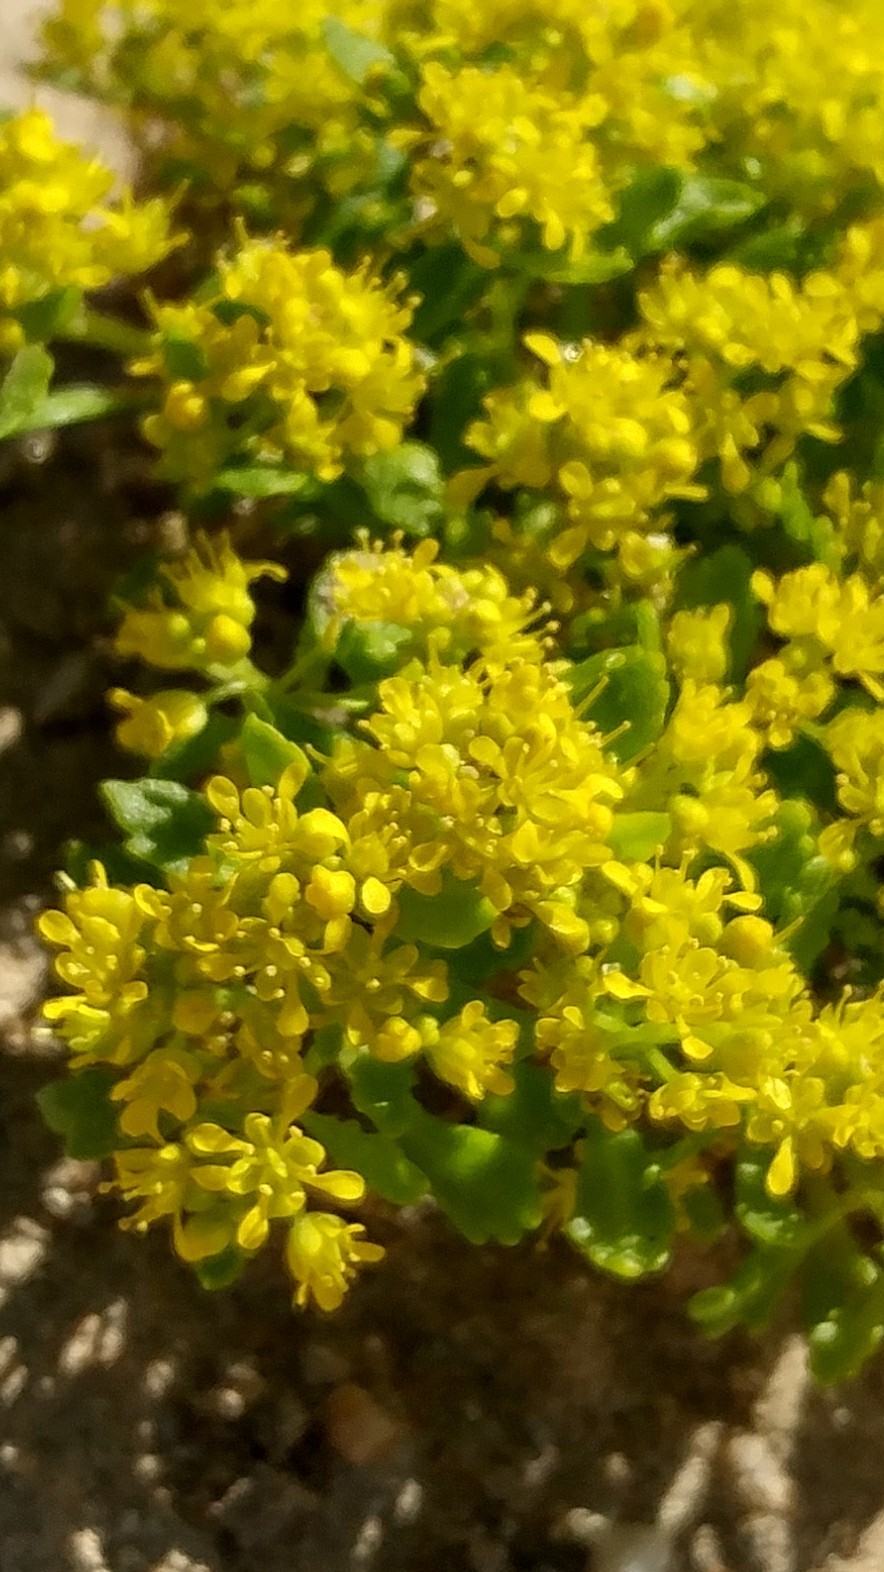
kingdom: Plantae
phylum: Tracheophyta
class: Magnoliopsida
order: Brassicales
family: Brassicaceae
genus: Lepidium
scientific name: Lepidium flavum
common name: Yellow pepperwort
